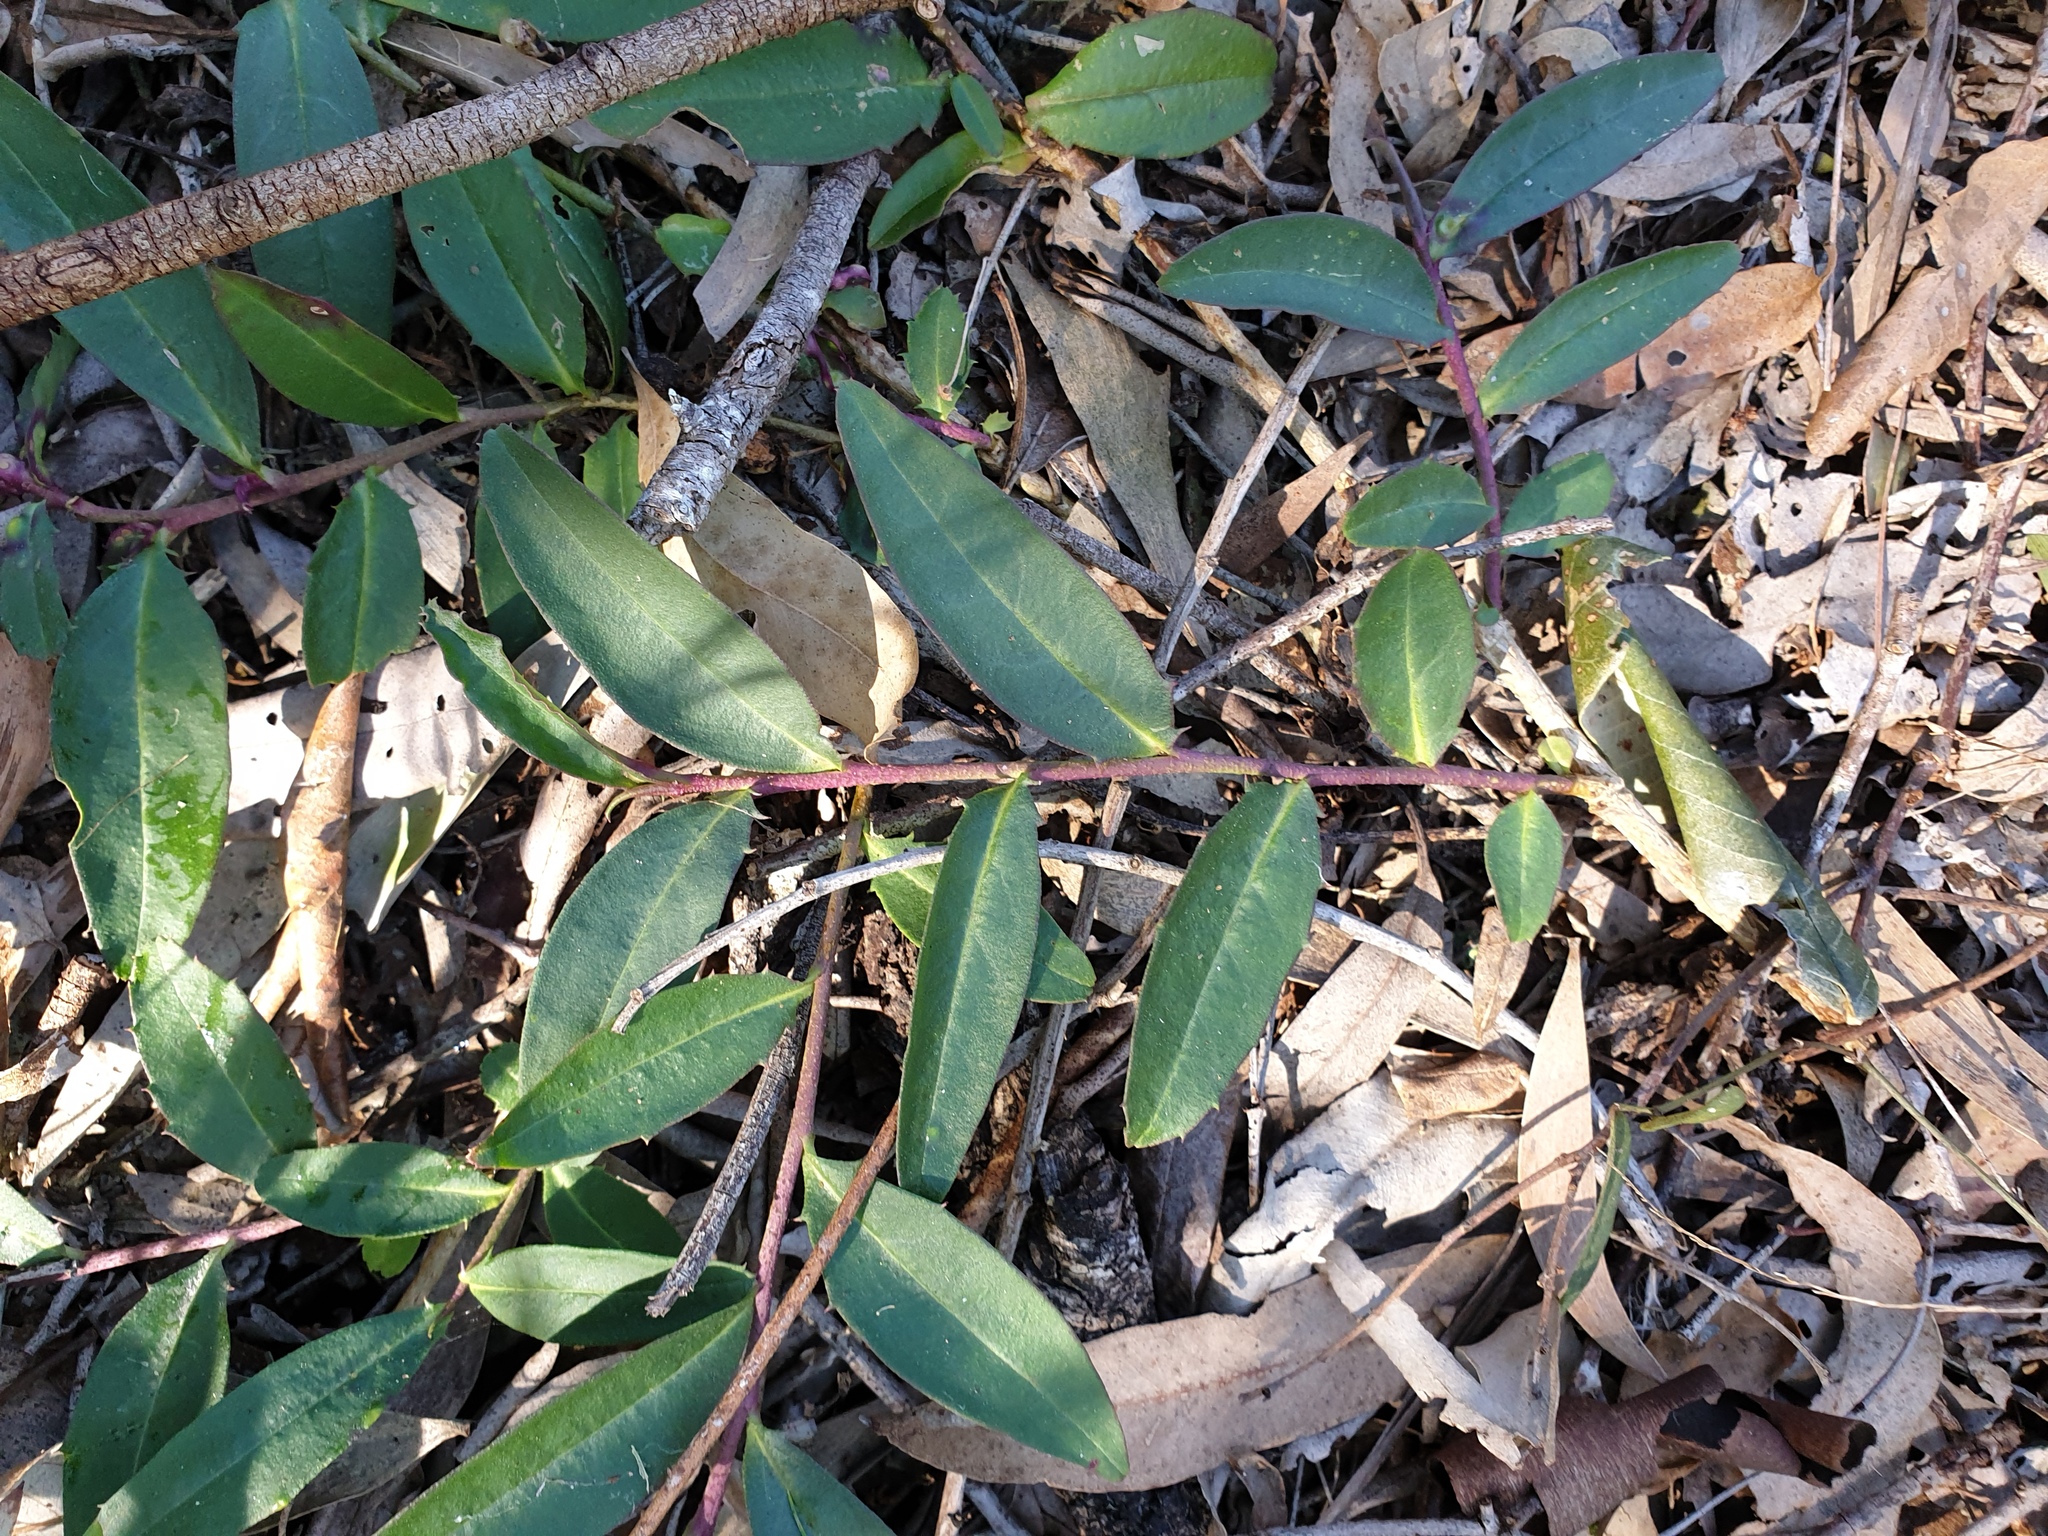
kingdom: Plantae
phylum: Tracheophyta
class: Magnoliopsida
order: Lamiales
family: Scrophulariaceae
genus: Eremophila
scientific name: Eremophila debilis
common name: Winter-apple
